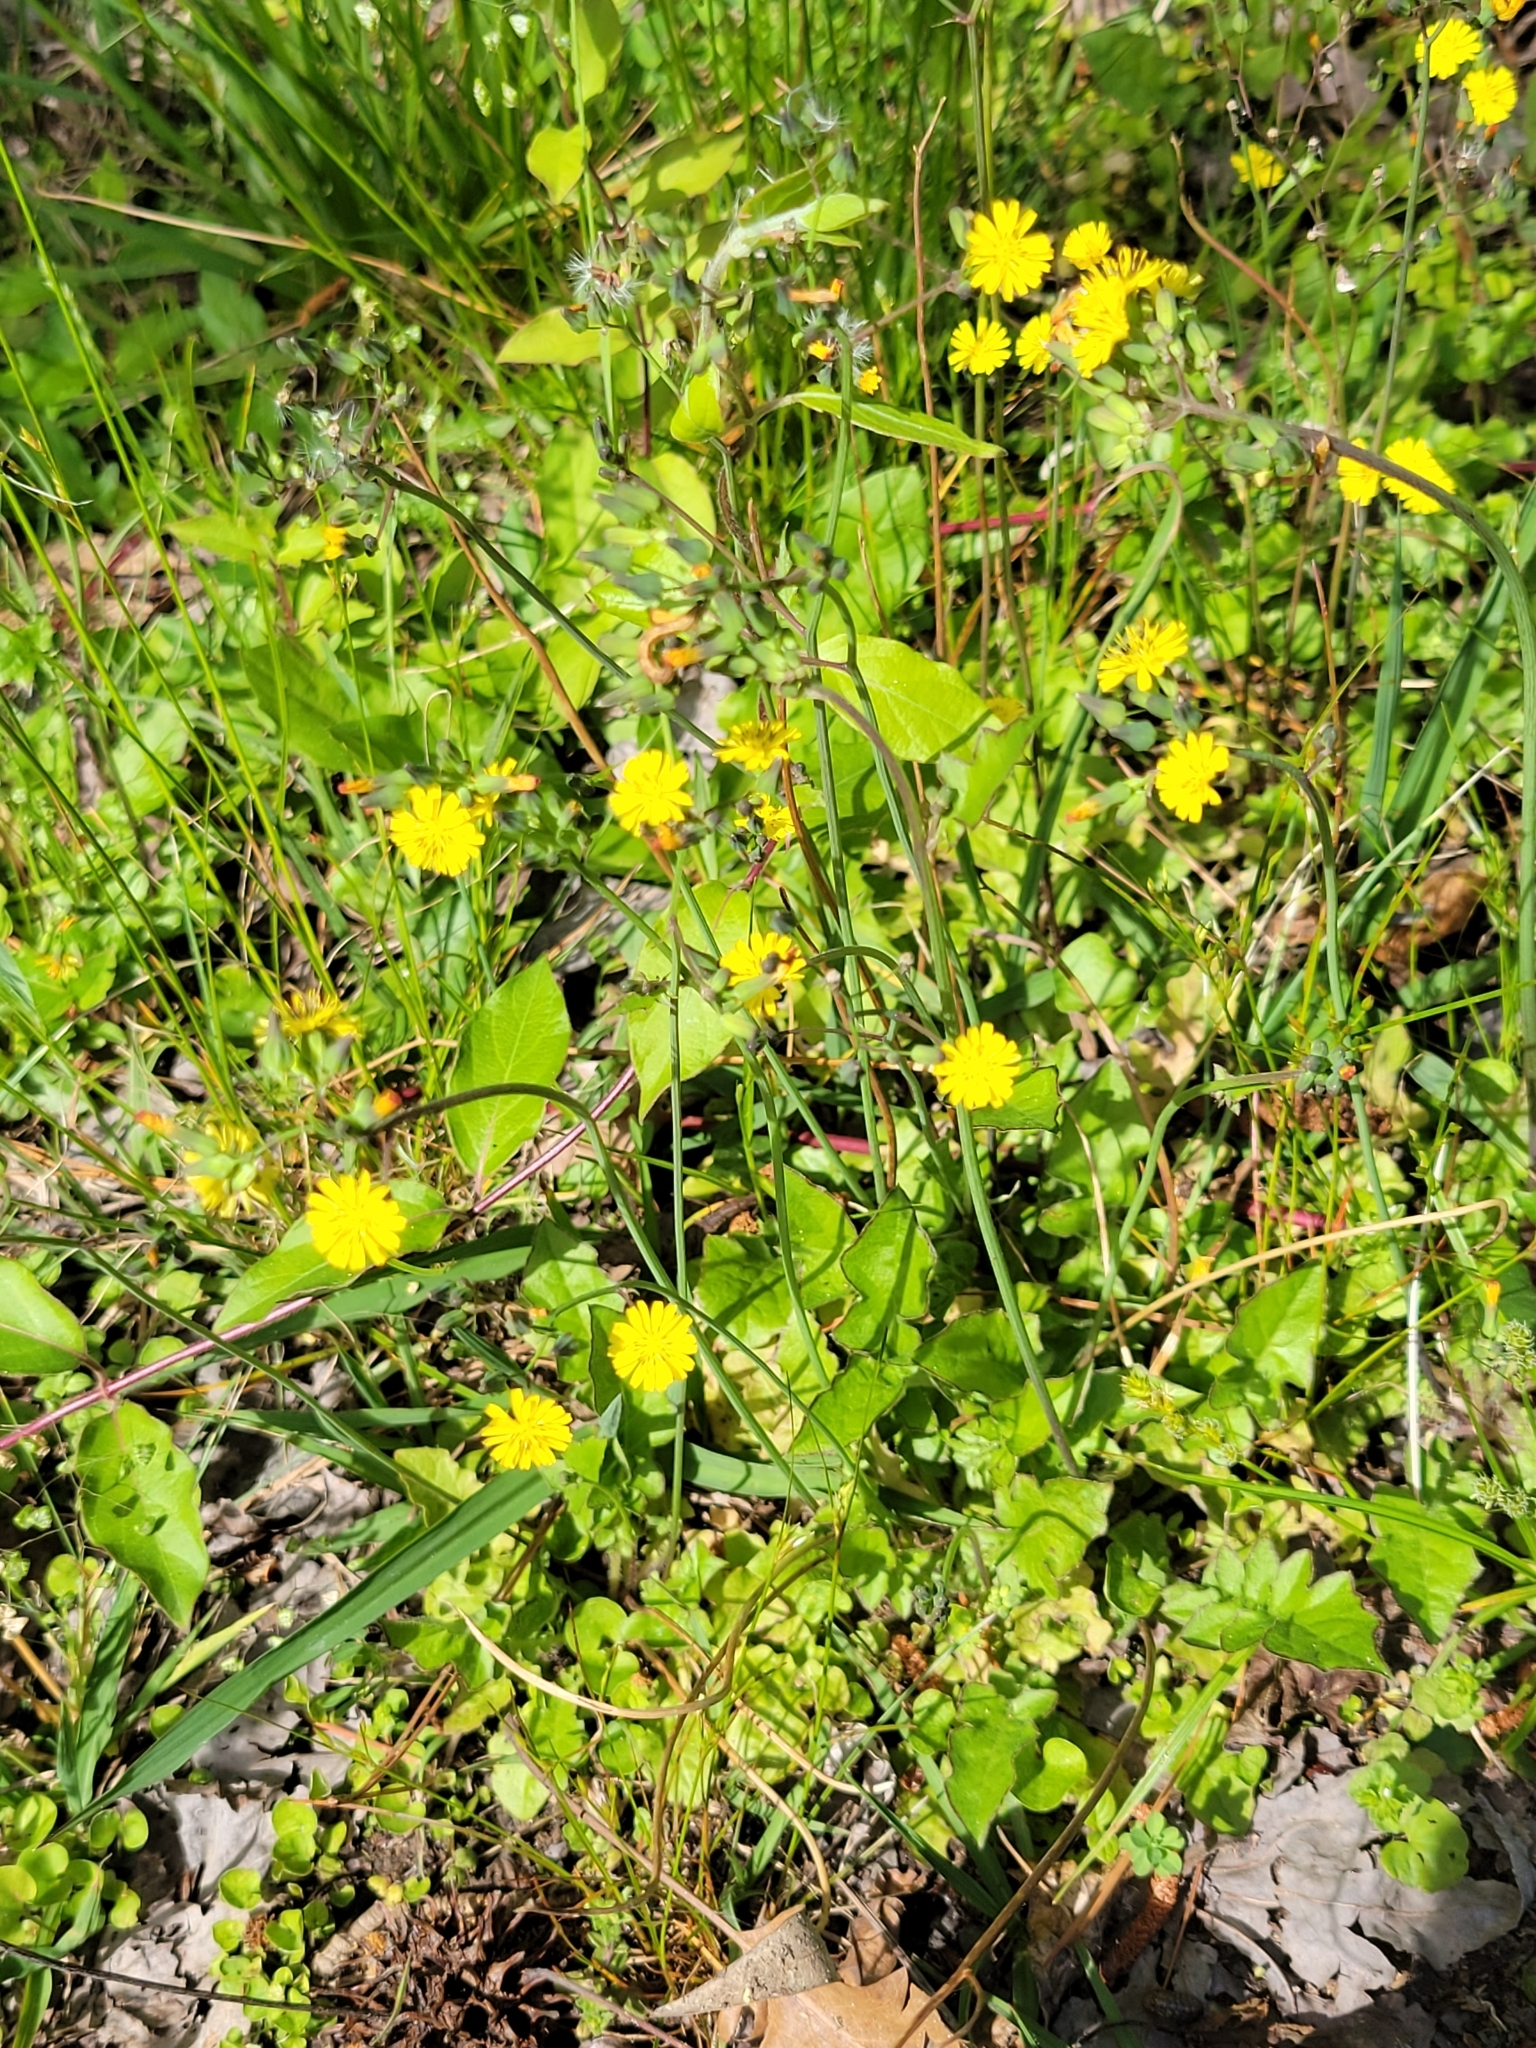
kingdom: Plantae
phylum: Tracheophyta
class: Magnoliopsida
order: Asterales
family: Asteraceae
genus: Youngia
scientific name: Youngia japonica
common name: Oriental false hawksbeard
